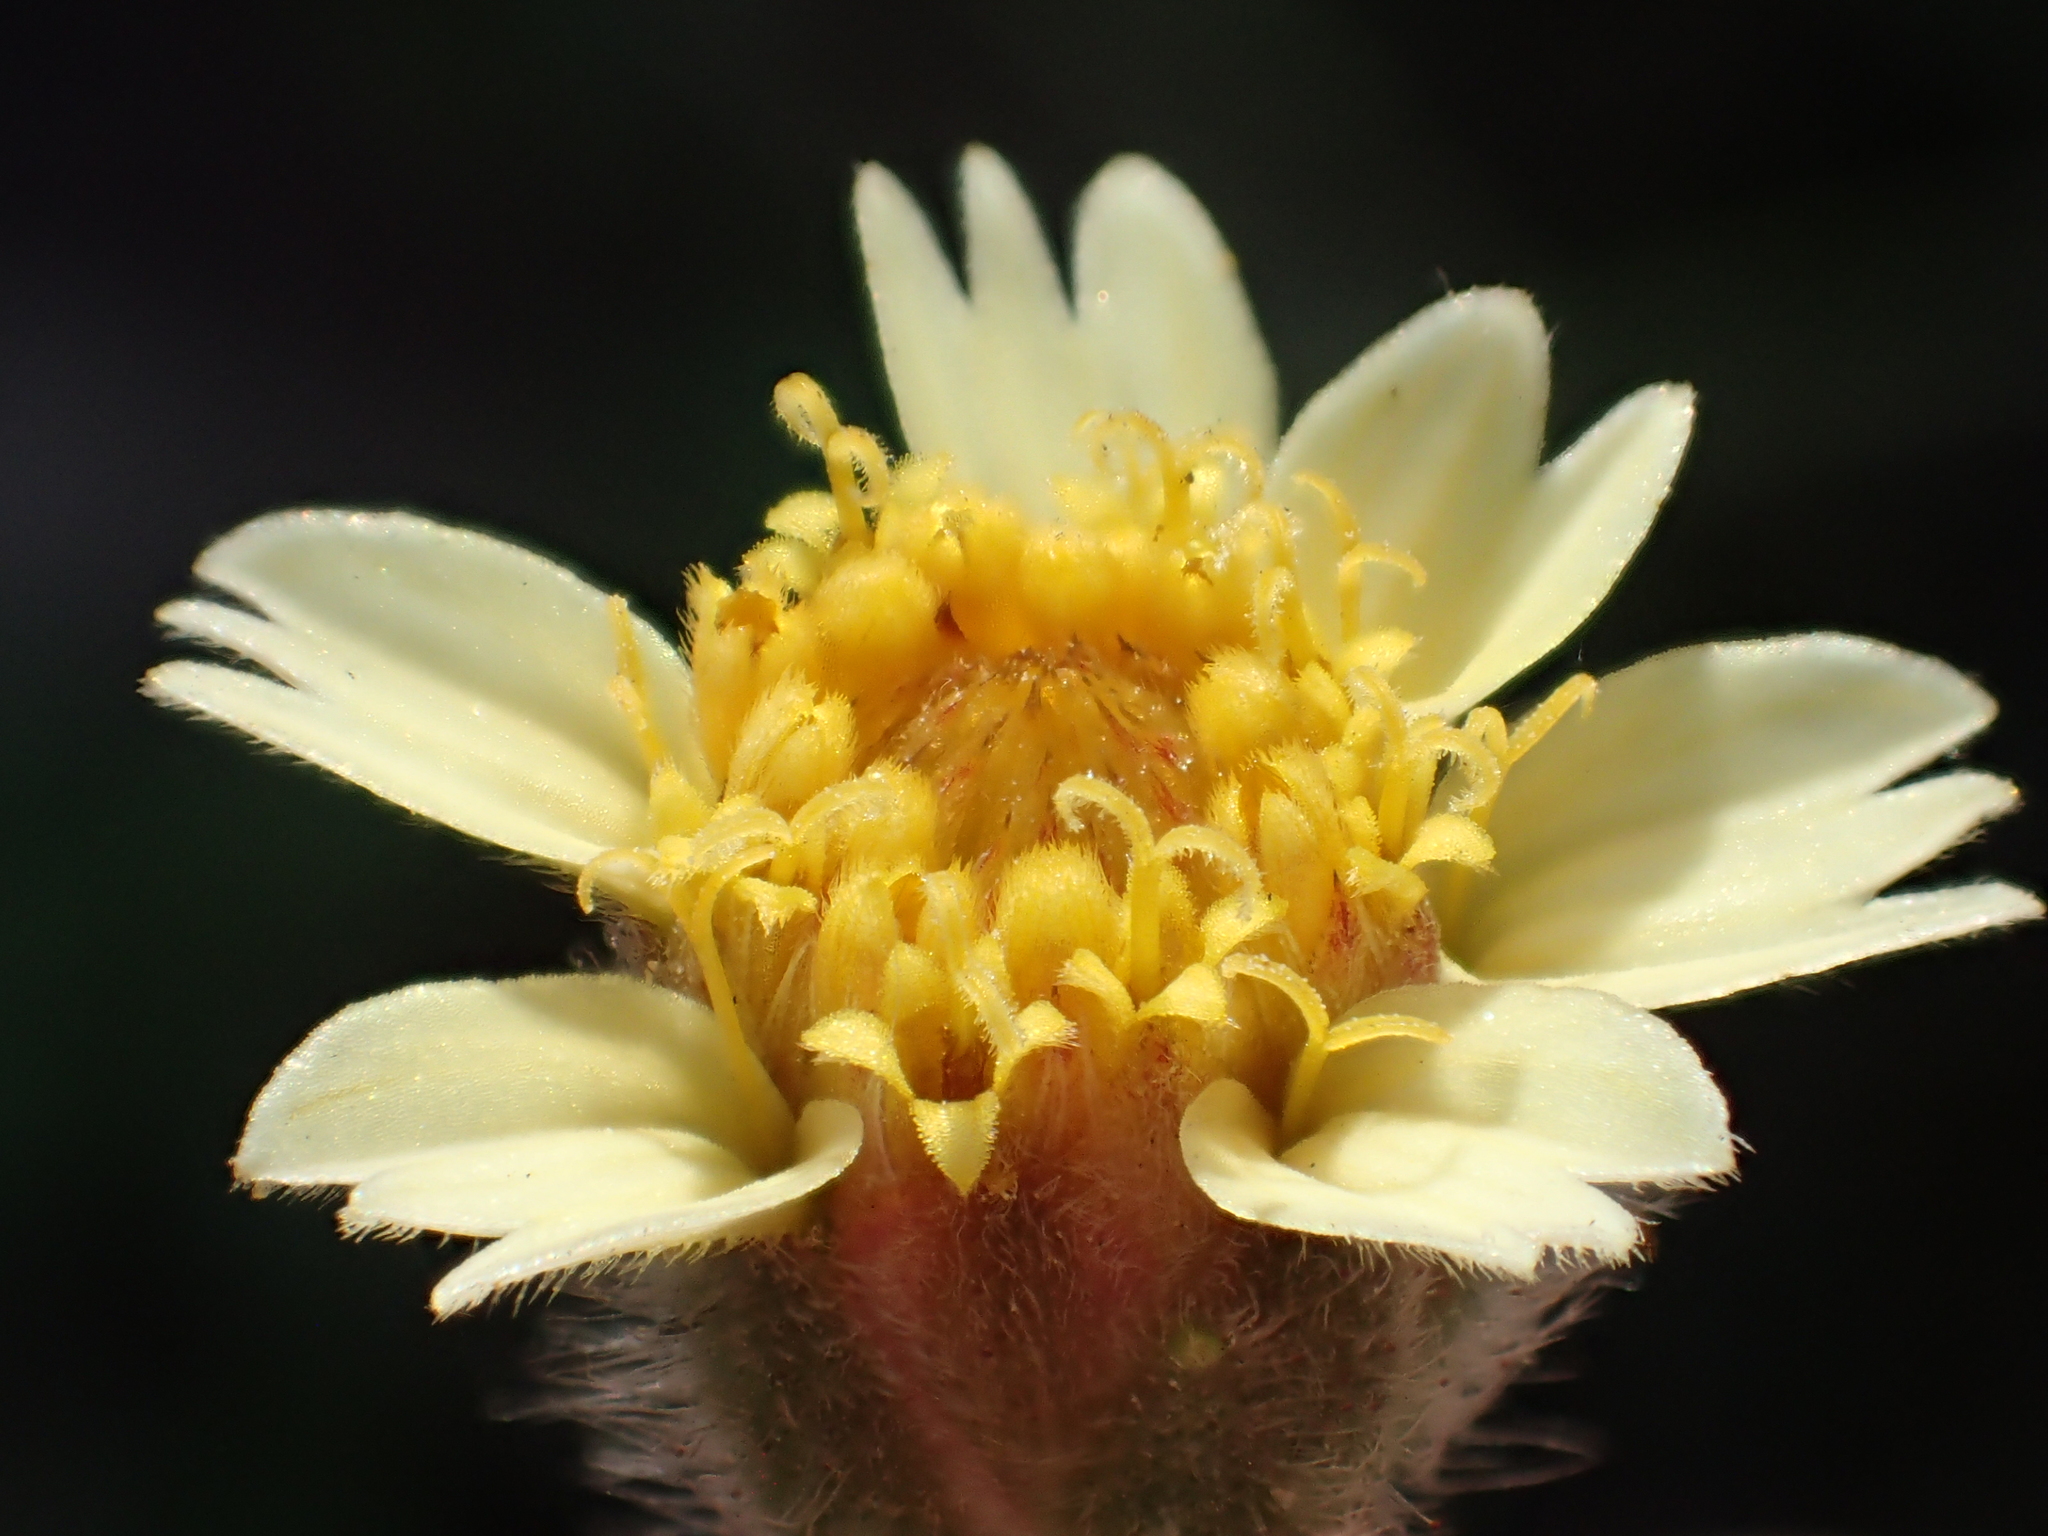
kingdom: Plantae
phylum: Tracheophyta
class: Magnoliopsida
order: Asterales
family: Asteraceae
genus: Tridax
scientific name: Tridax procumbens
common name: Coatbuttons
